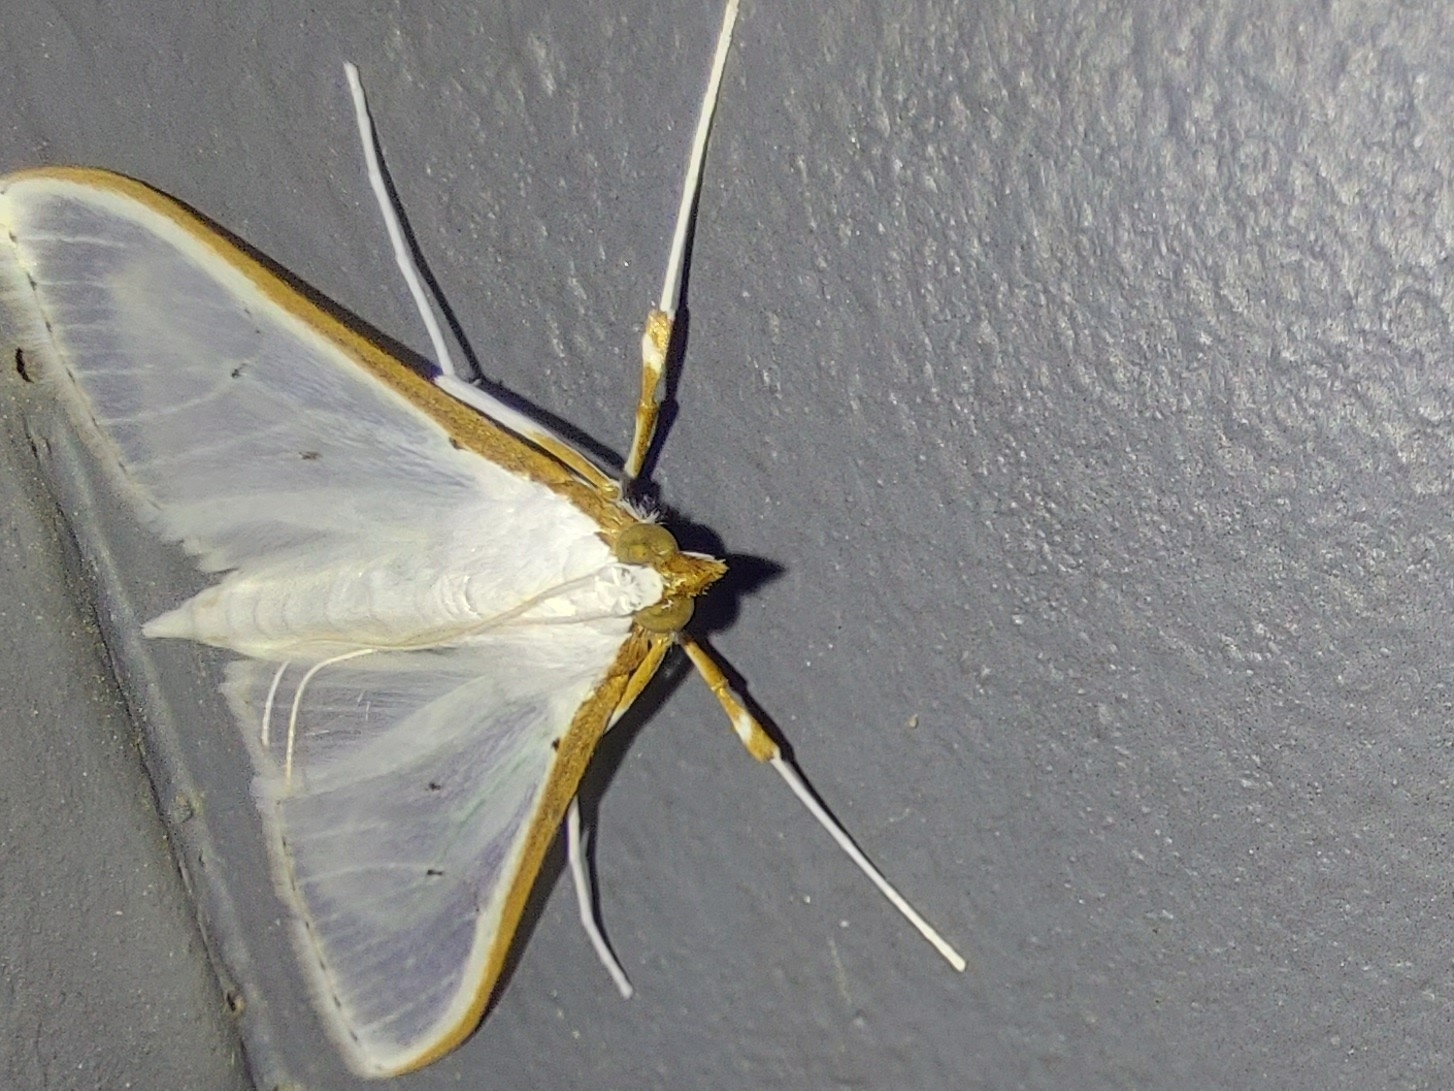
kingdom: Animalia
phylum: Arthropoda
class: Insecta
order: Lepidoptera
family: Crambidae
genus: Palpita
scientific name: Palpita vitrealis
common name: Olive-tree pearl
